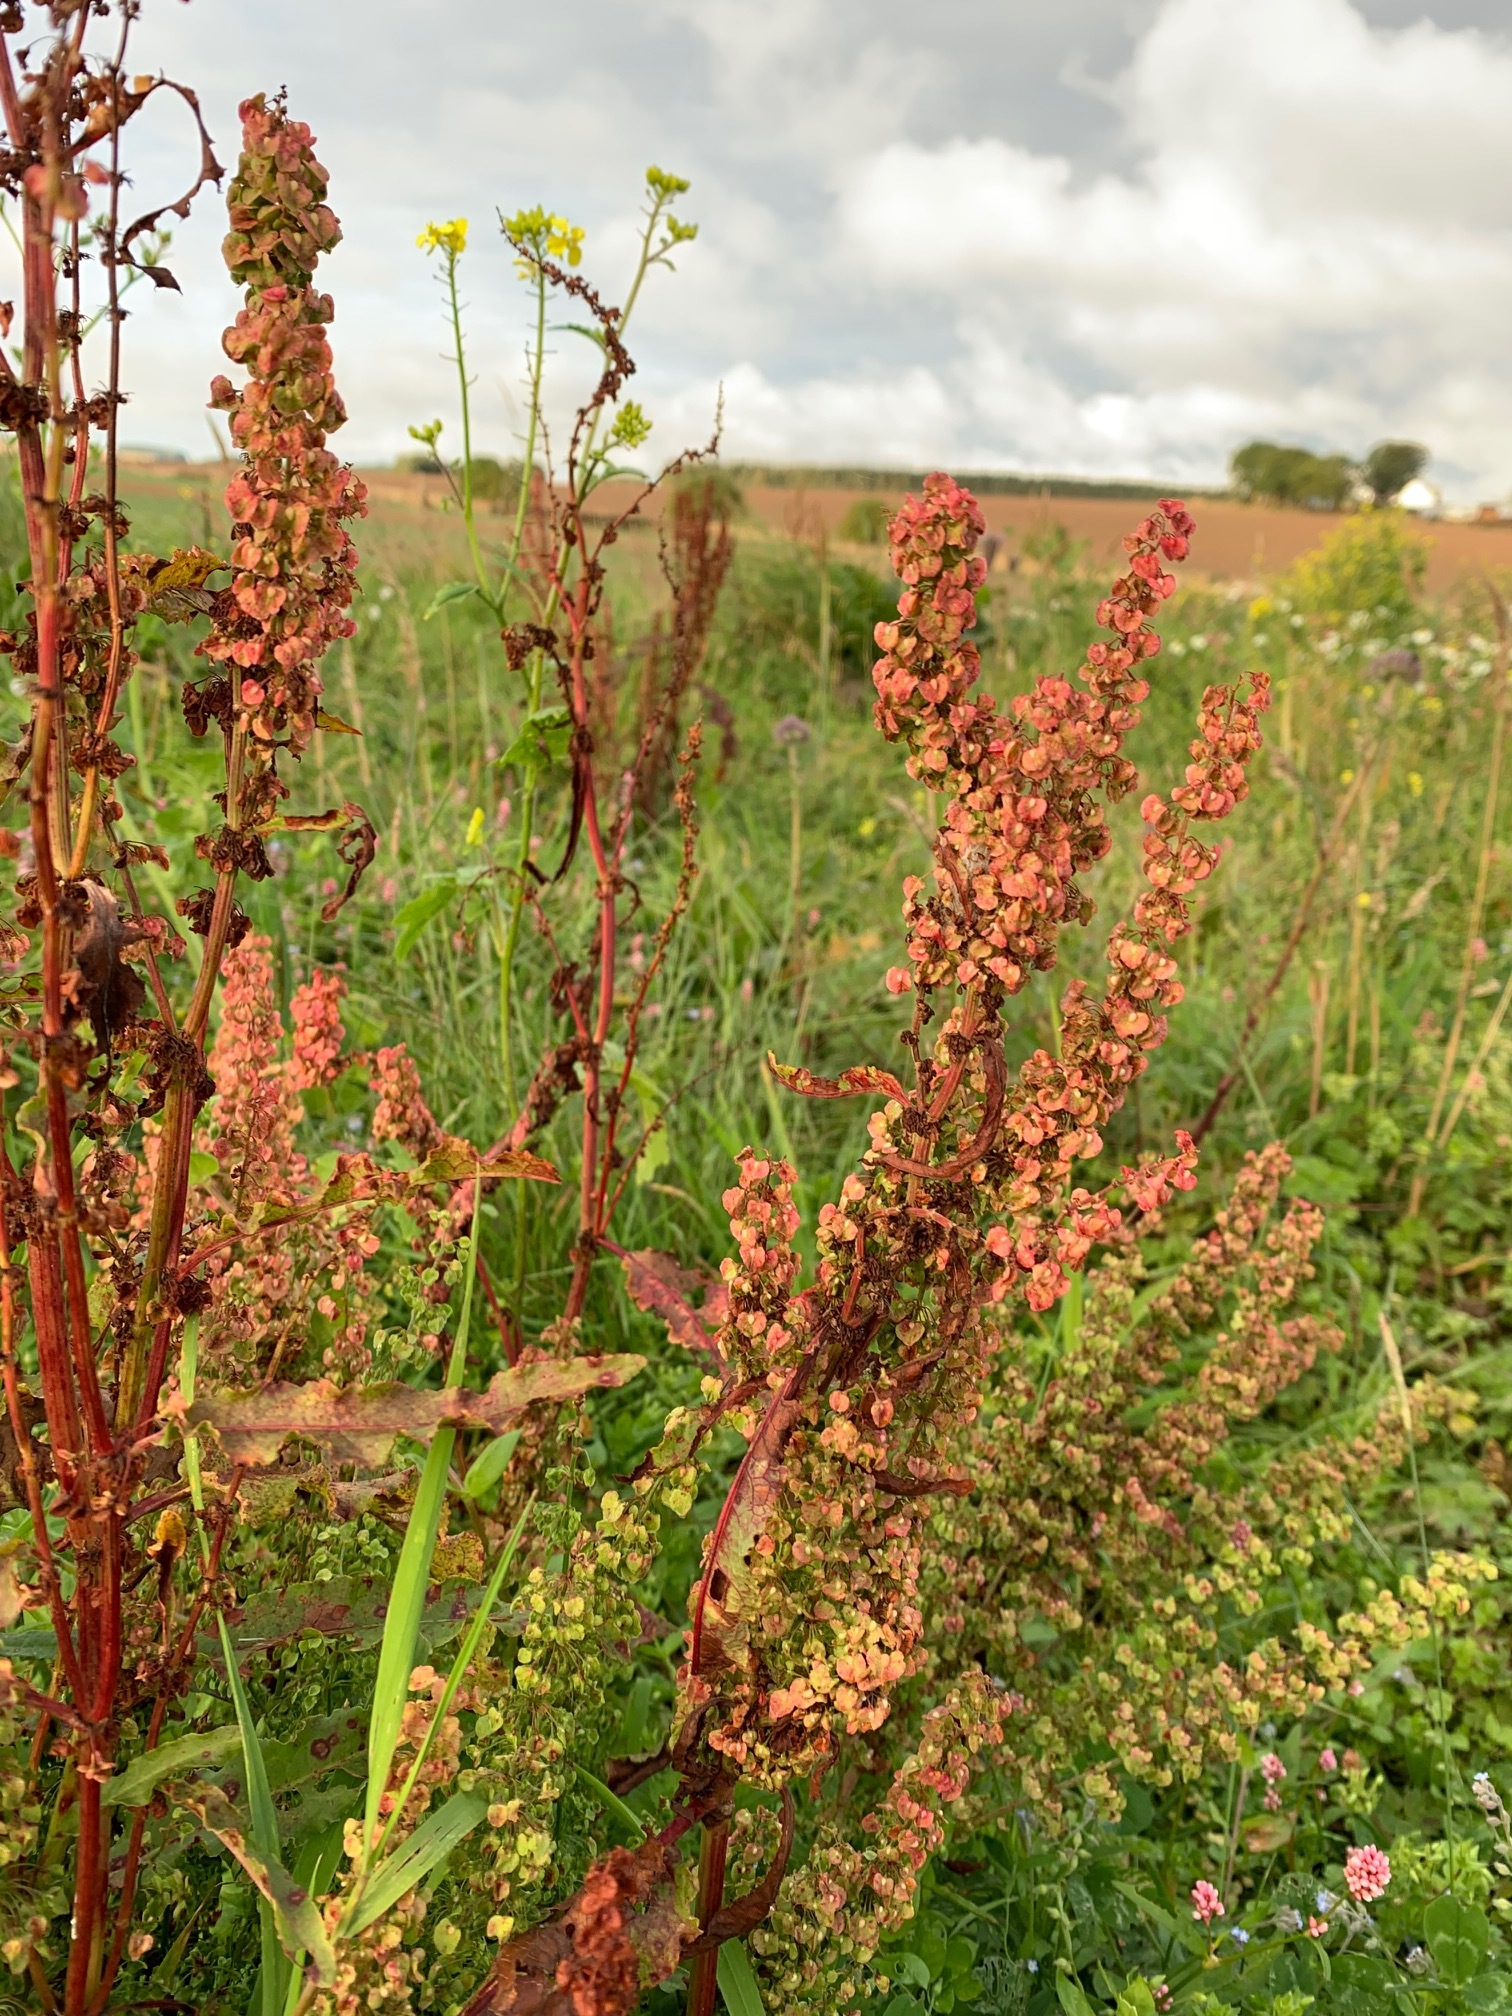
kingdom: Plantae
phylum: Tracheophyta
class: Magnoliopsida
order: Caryophyllales
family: Polygonaceae
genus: Rumex
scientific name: Rumex crispus
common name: Curled dock
